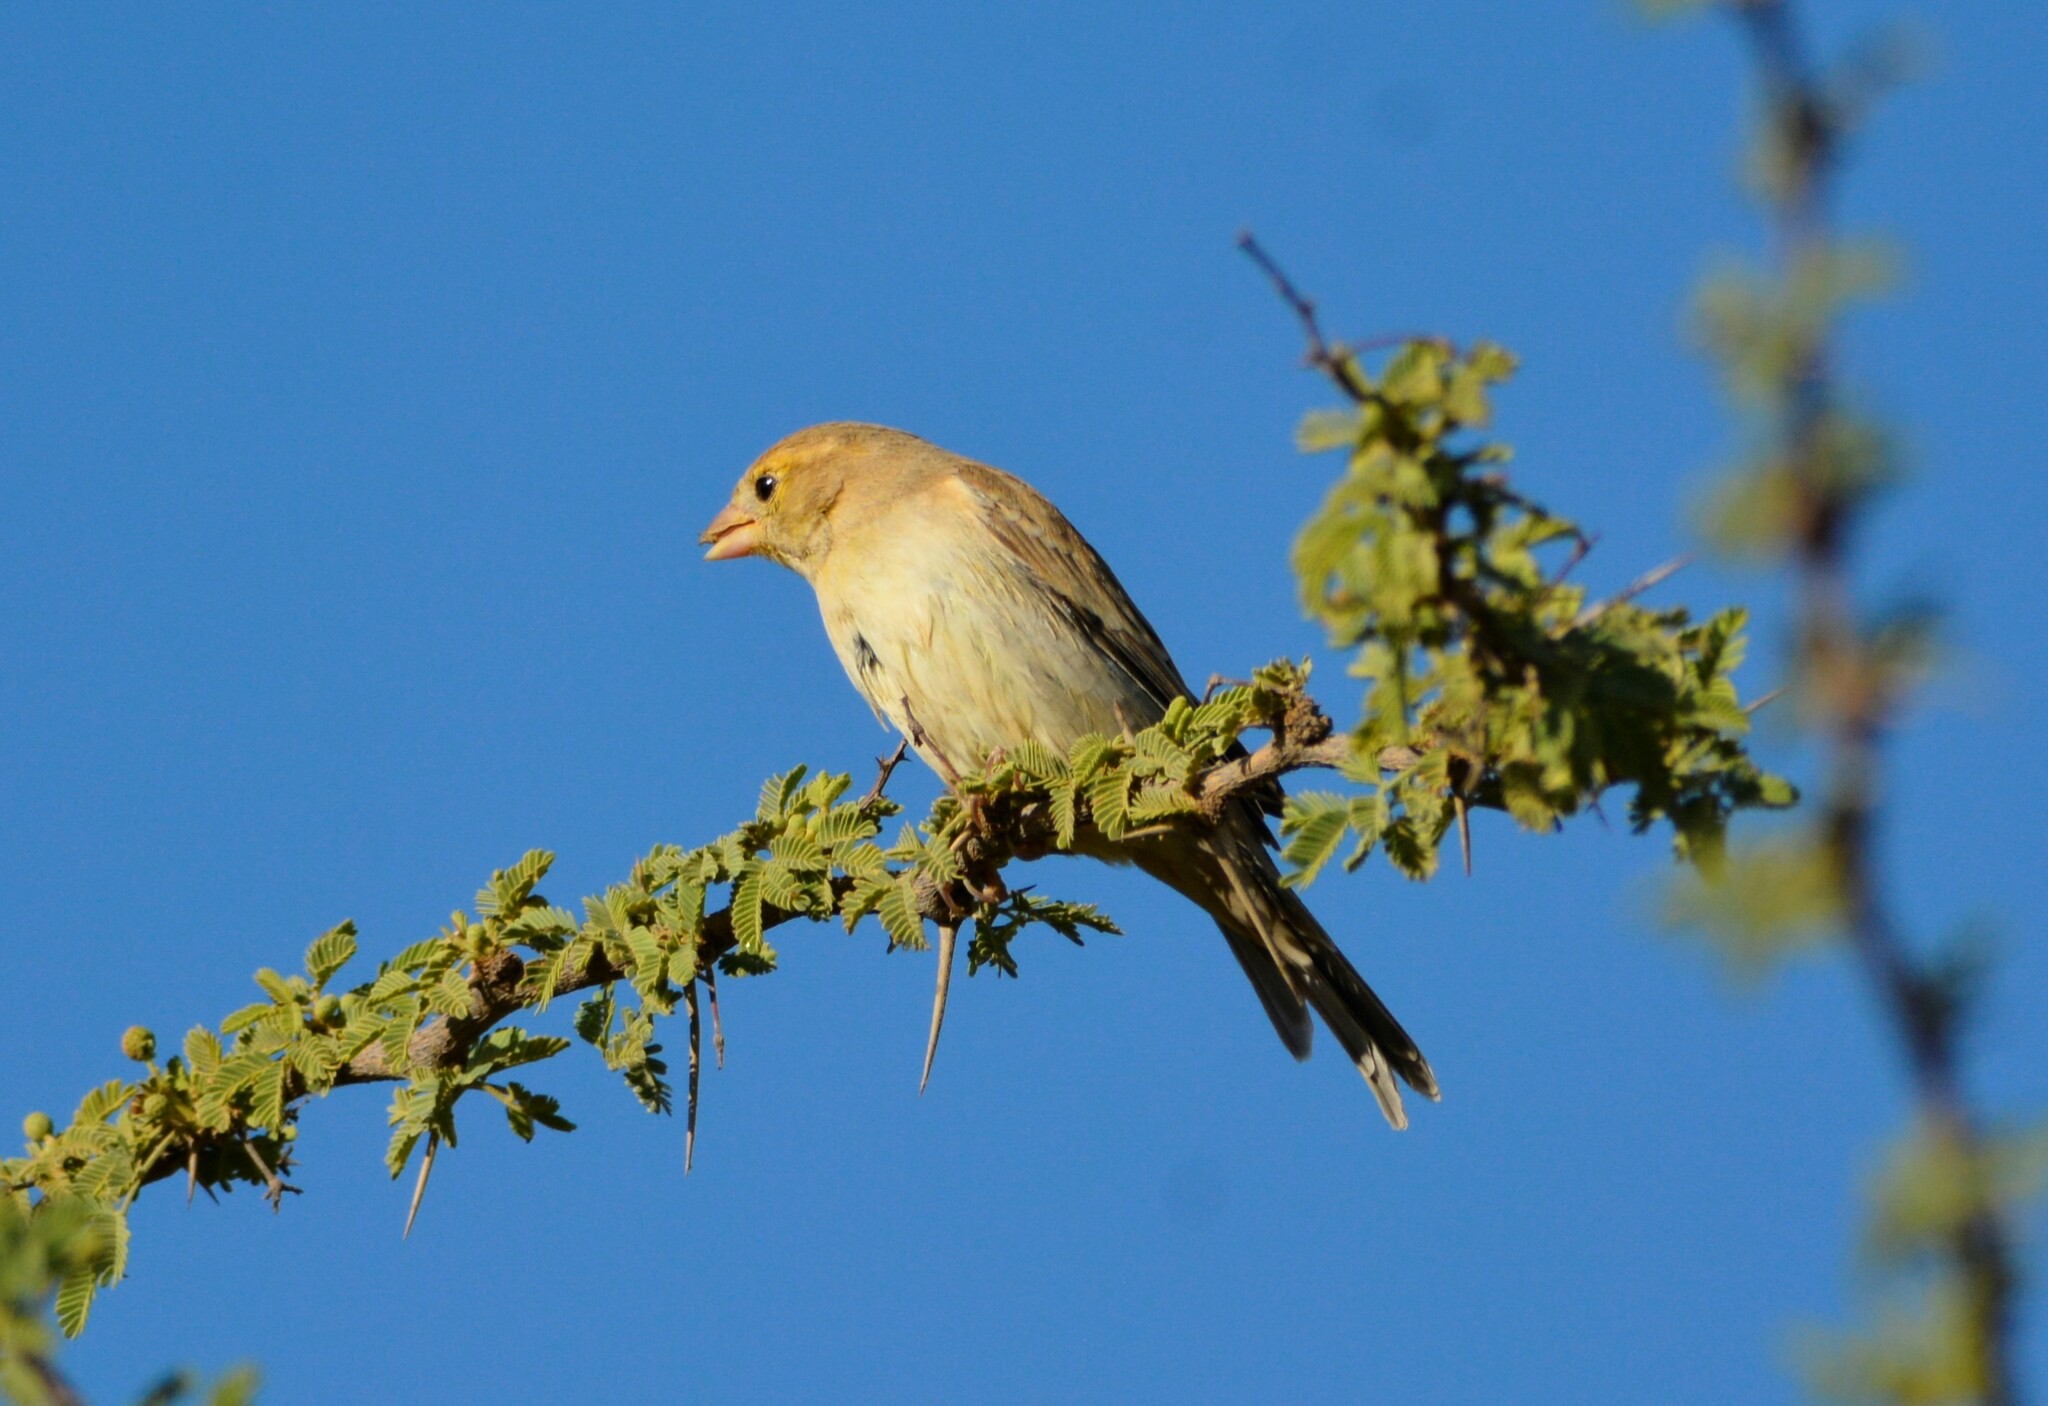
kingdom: Animalia
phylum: Chordata
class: Aves
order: Passeriformes
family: Passeridae
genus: Passer
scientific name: Passer luteus
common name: Sudan golden sparrow
